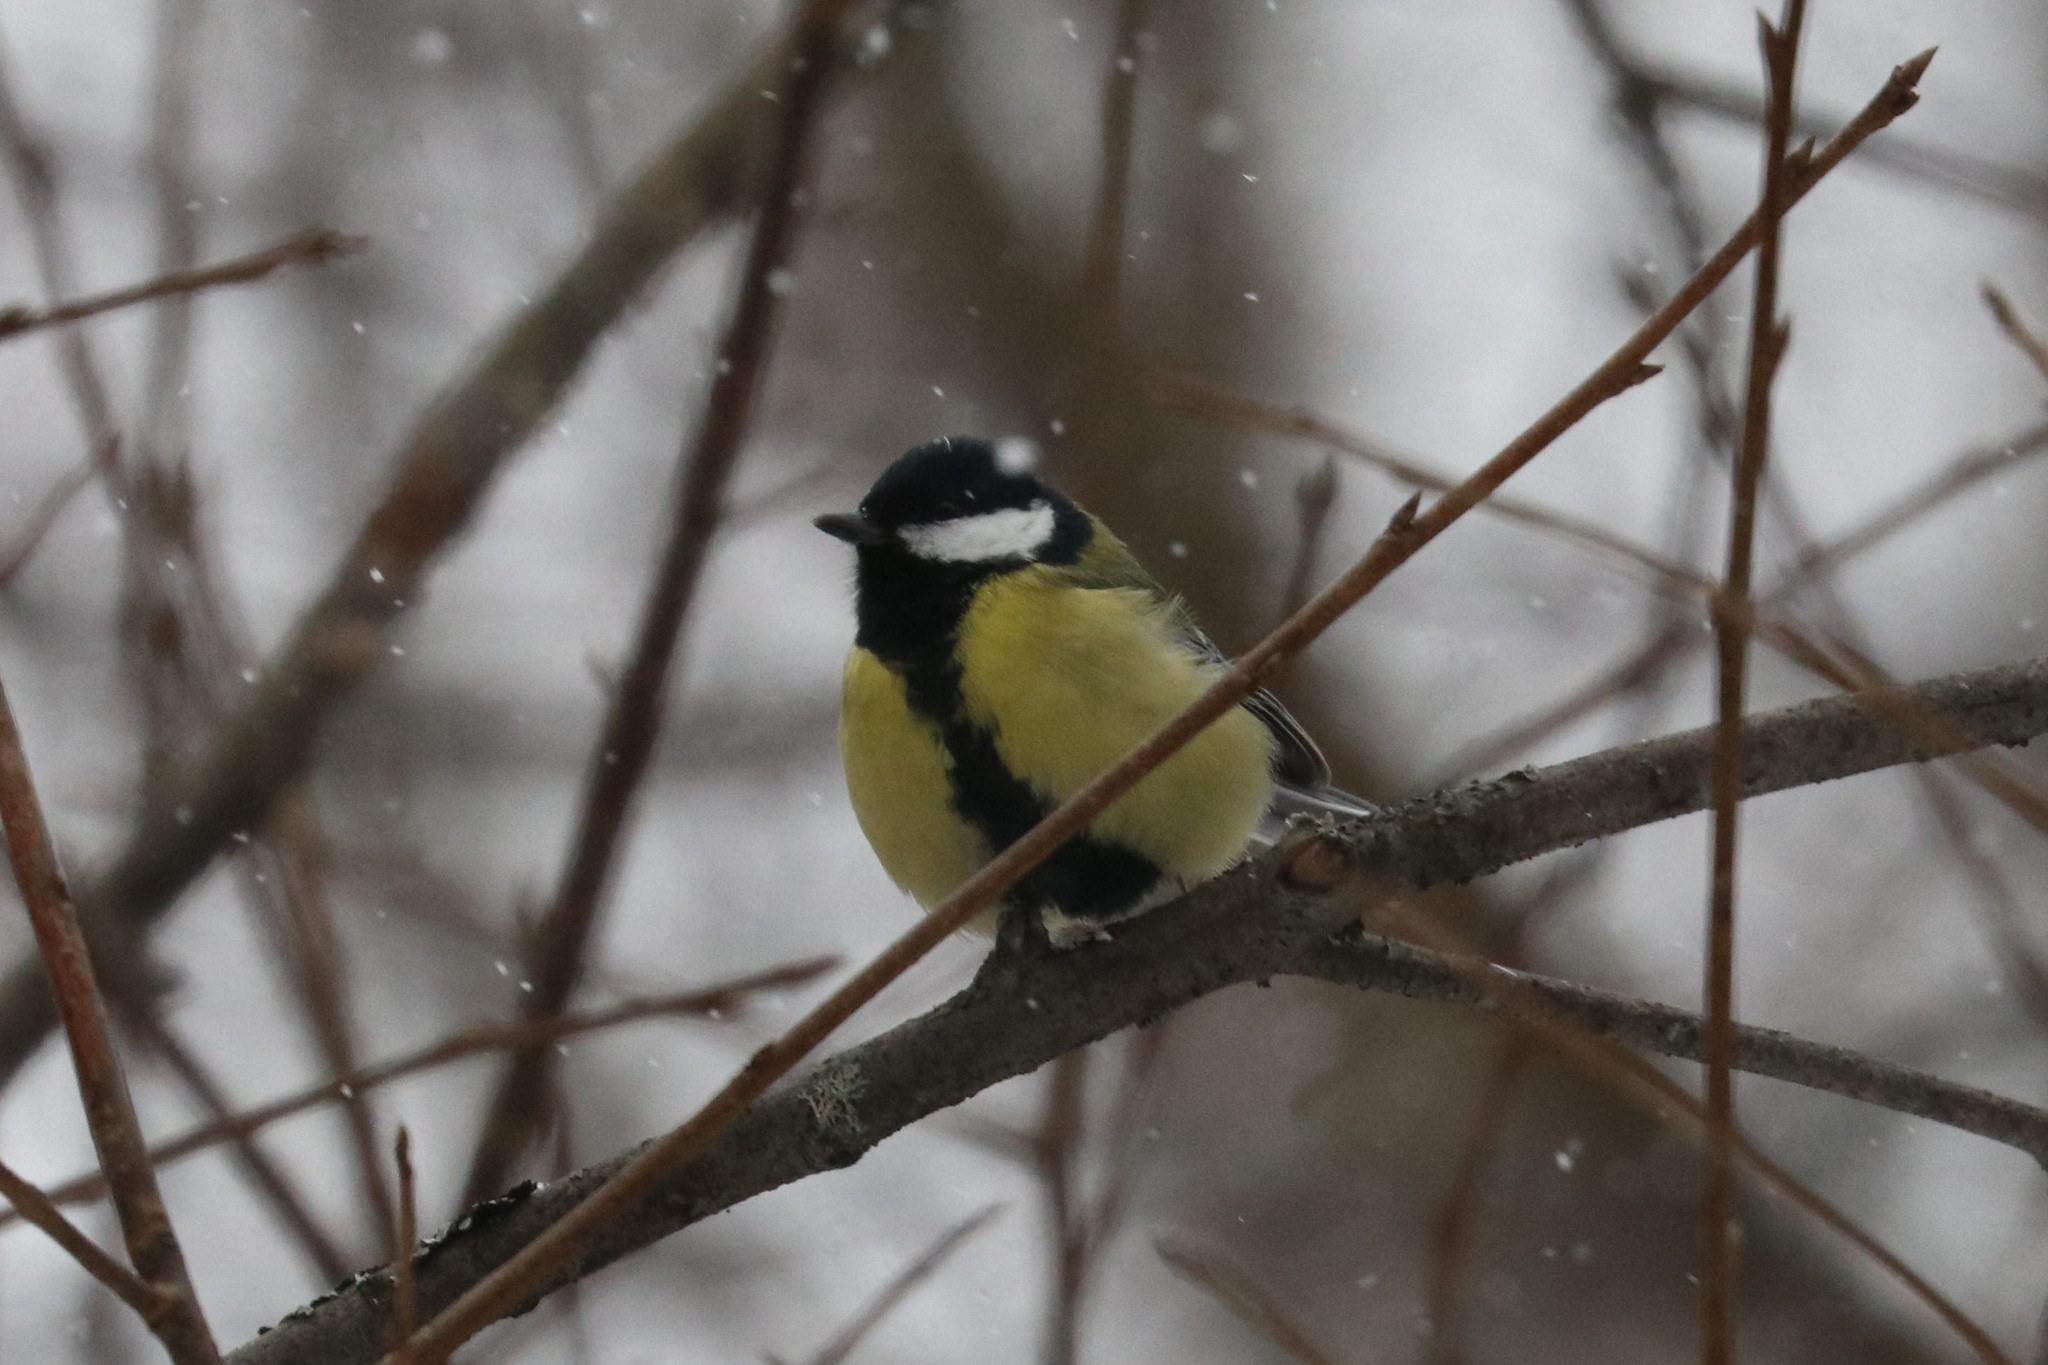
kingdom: Animalia
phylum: Chordata
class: Aves
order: Passeriformes
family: Paridae
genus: Parus
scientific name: Parus major
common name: Great tit
